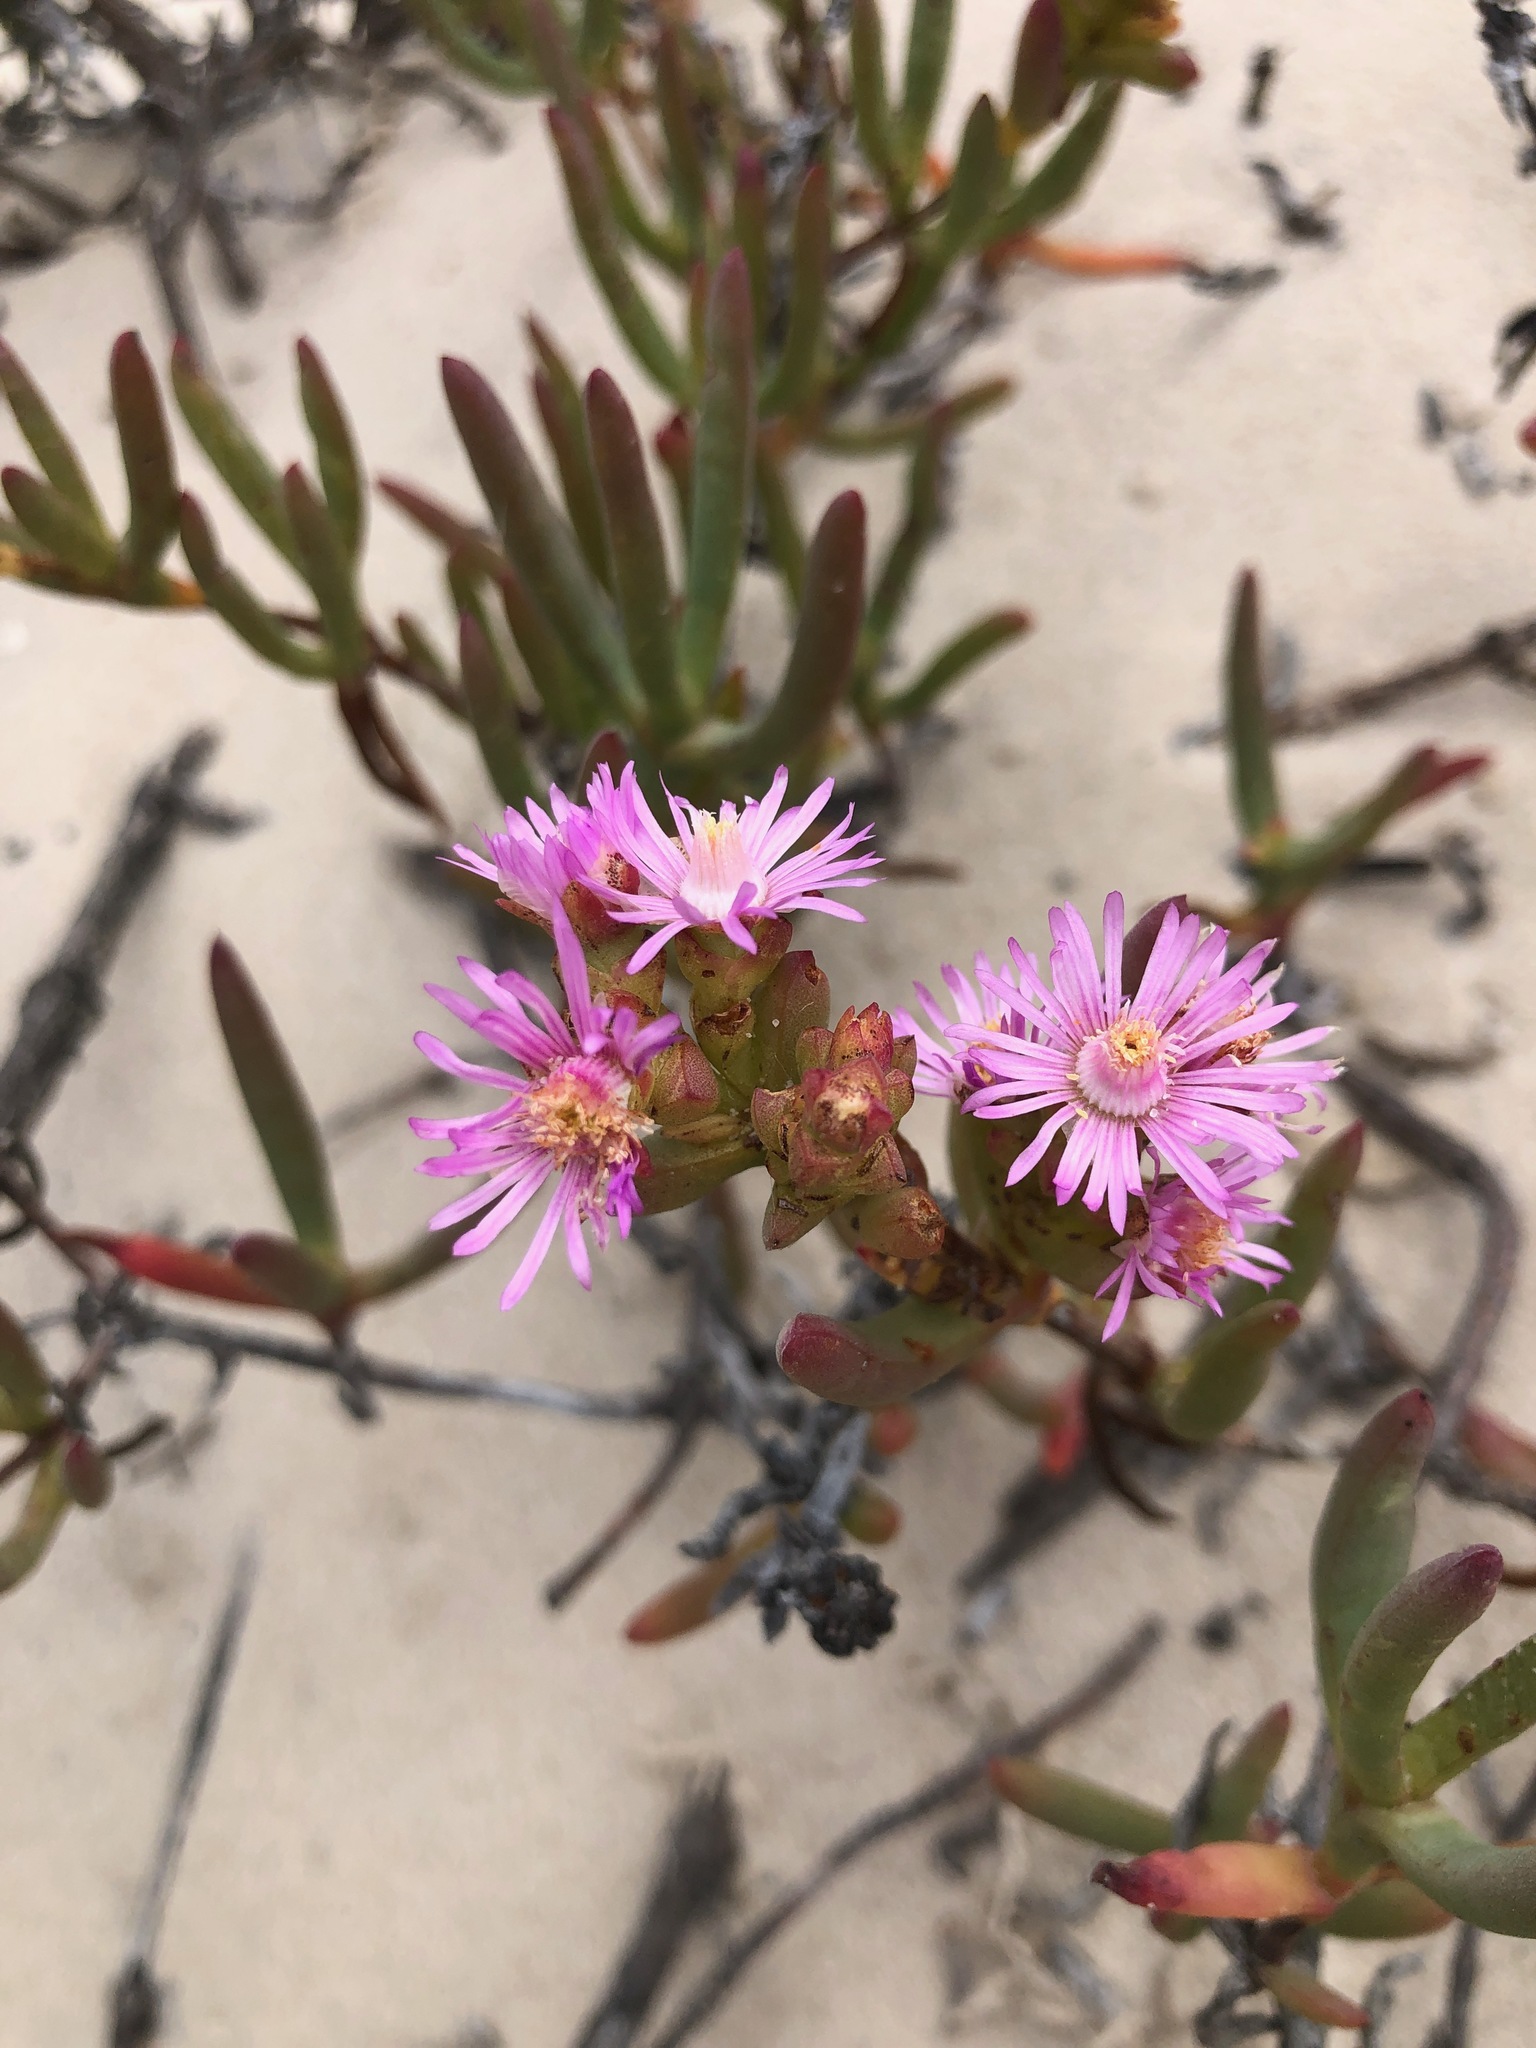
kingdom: Plantae
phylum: Tracheophyta
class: Magnoliopsida
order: Caryophyllales
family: Aizoaceae
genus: Ruschia
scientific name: Ruschia macowanii
